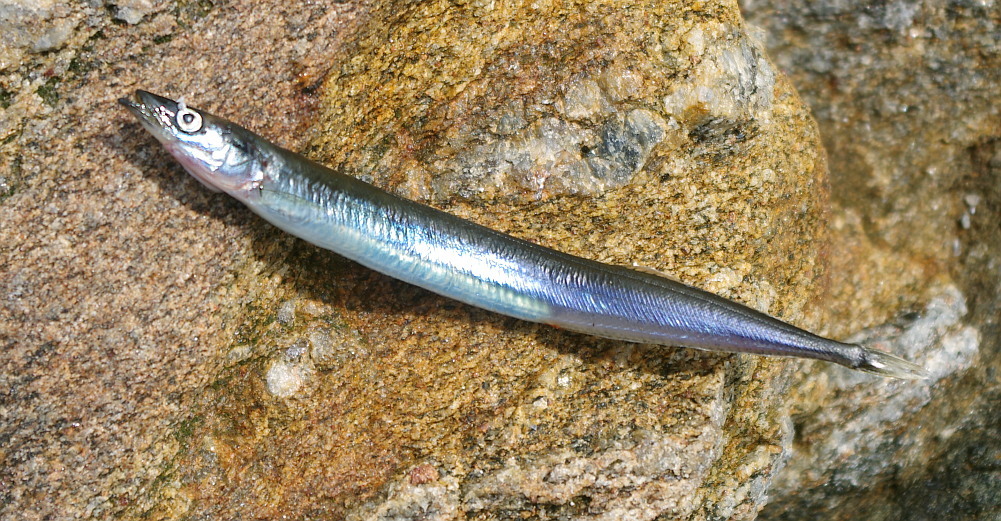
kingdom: Animalia
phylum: Chordata
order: Perciformes
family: Ammodytidae
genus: Ammodytes
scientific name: Ammodytes tobianus
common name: Small sandeel
